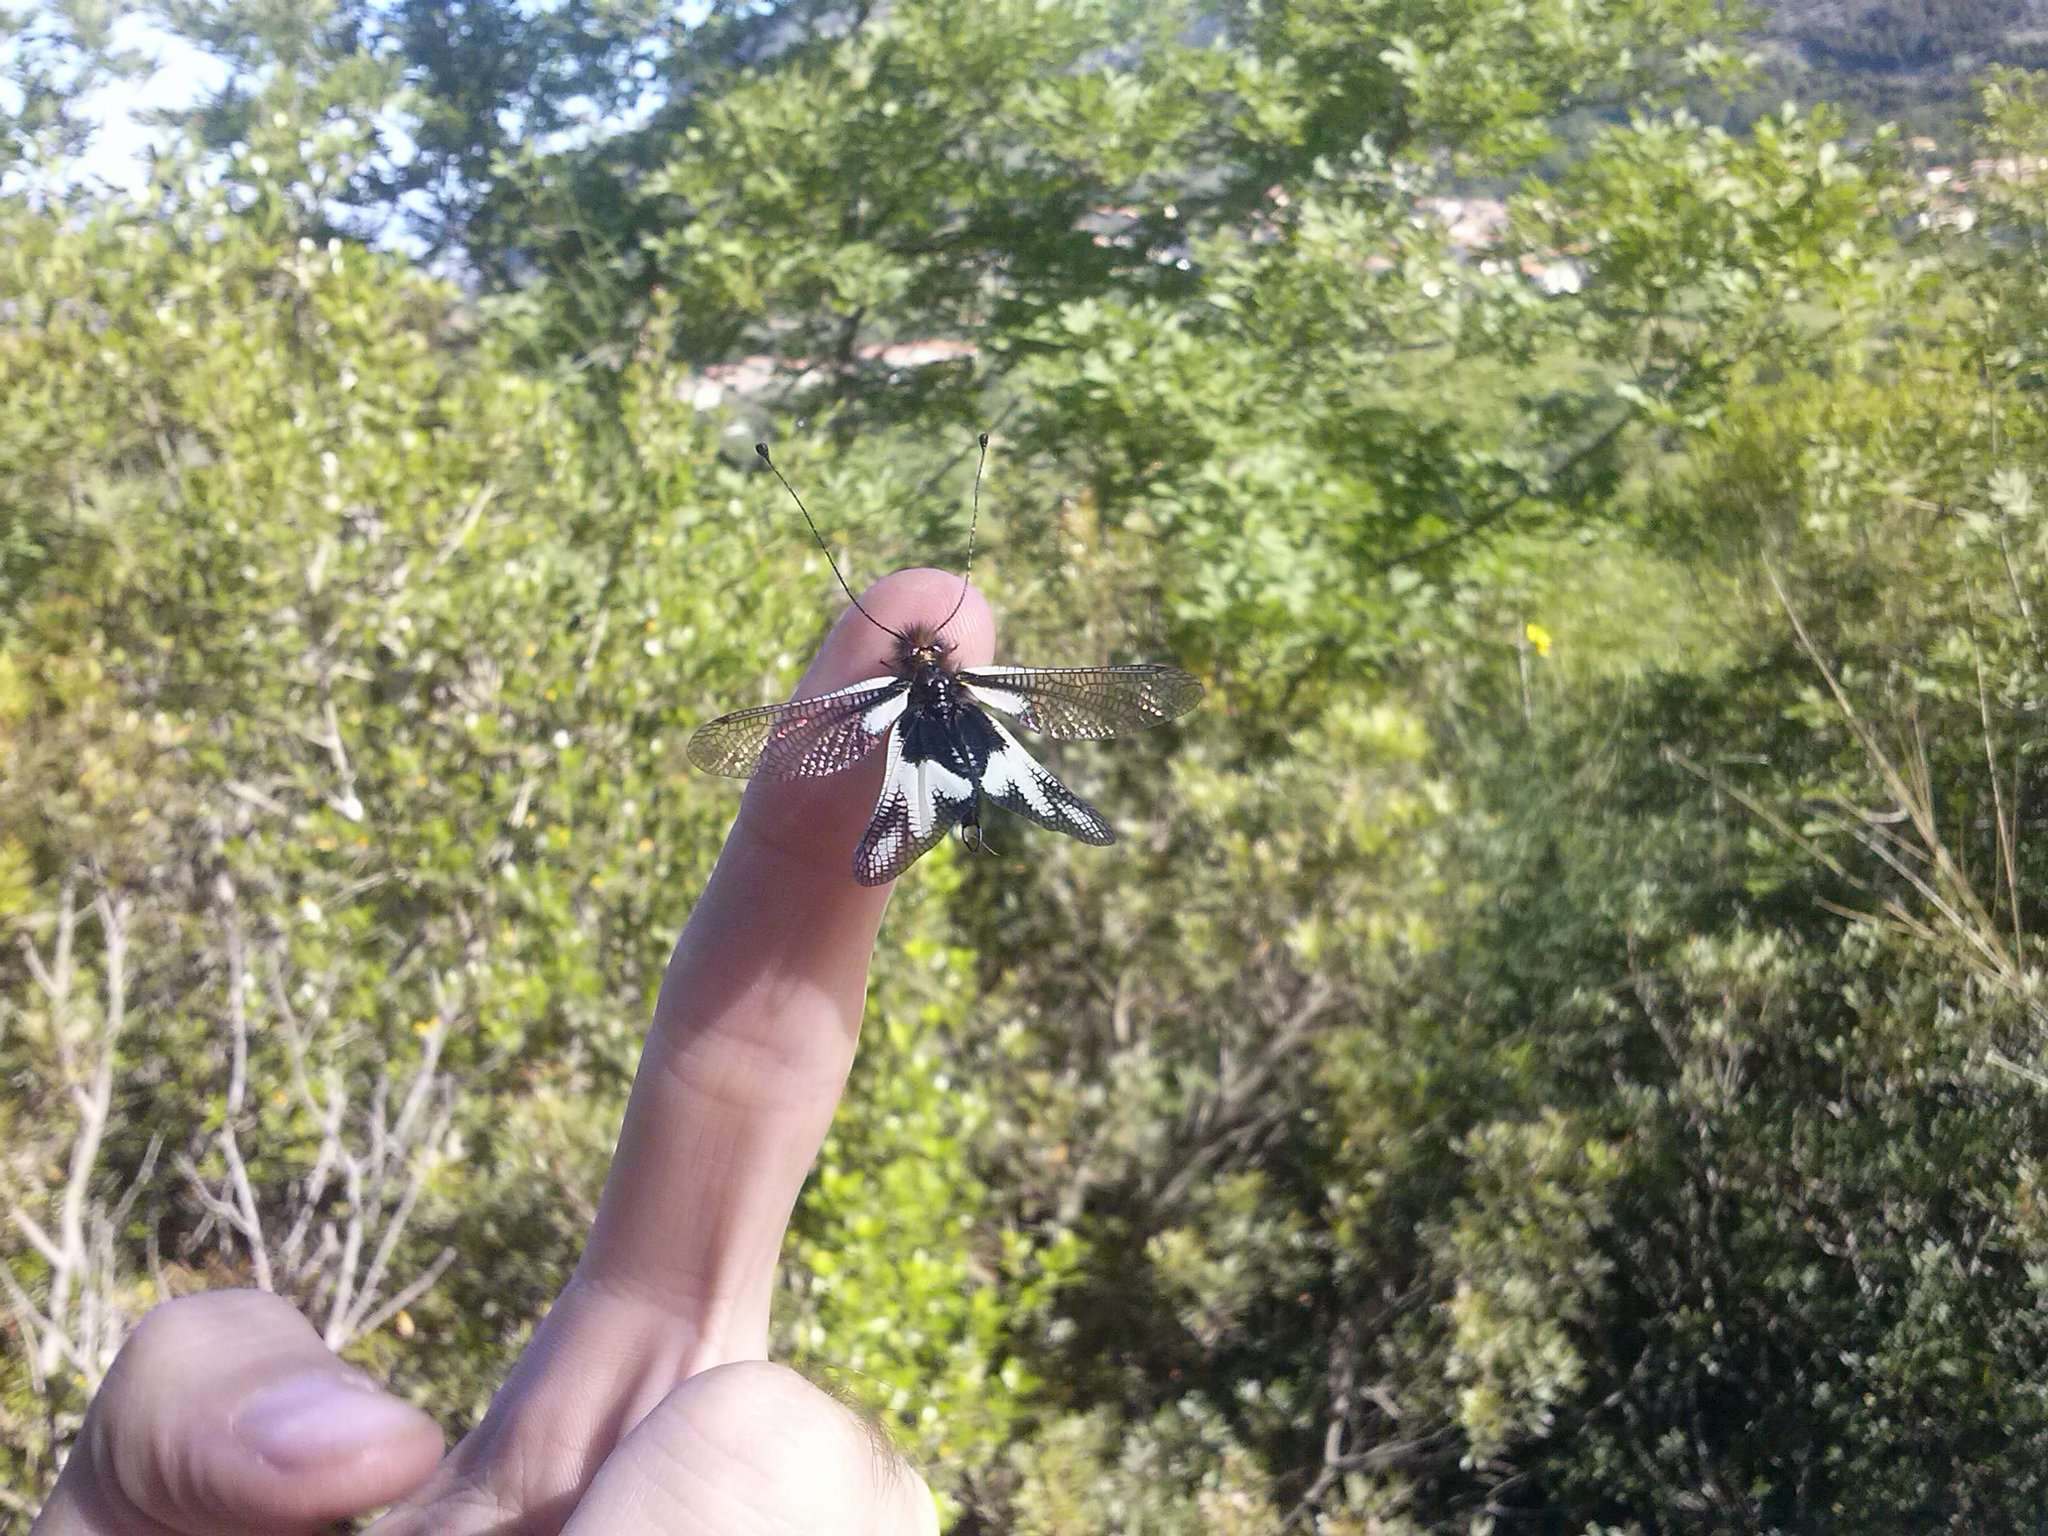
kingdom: Animalia
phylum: Arthropoda
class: Insecta
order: Neuroptera
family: Ascalaphidae
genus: Libelloides
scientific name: Libelloides coccajus
